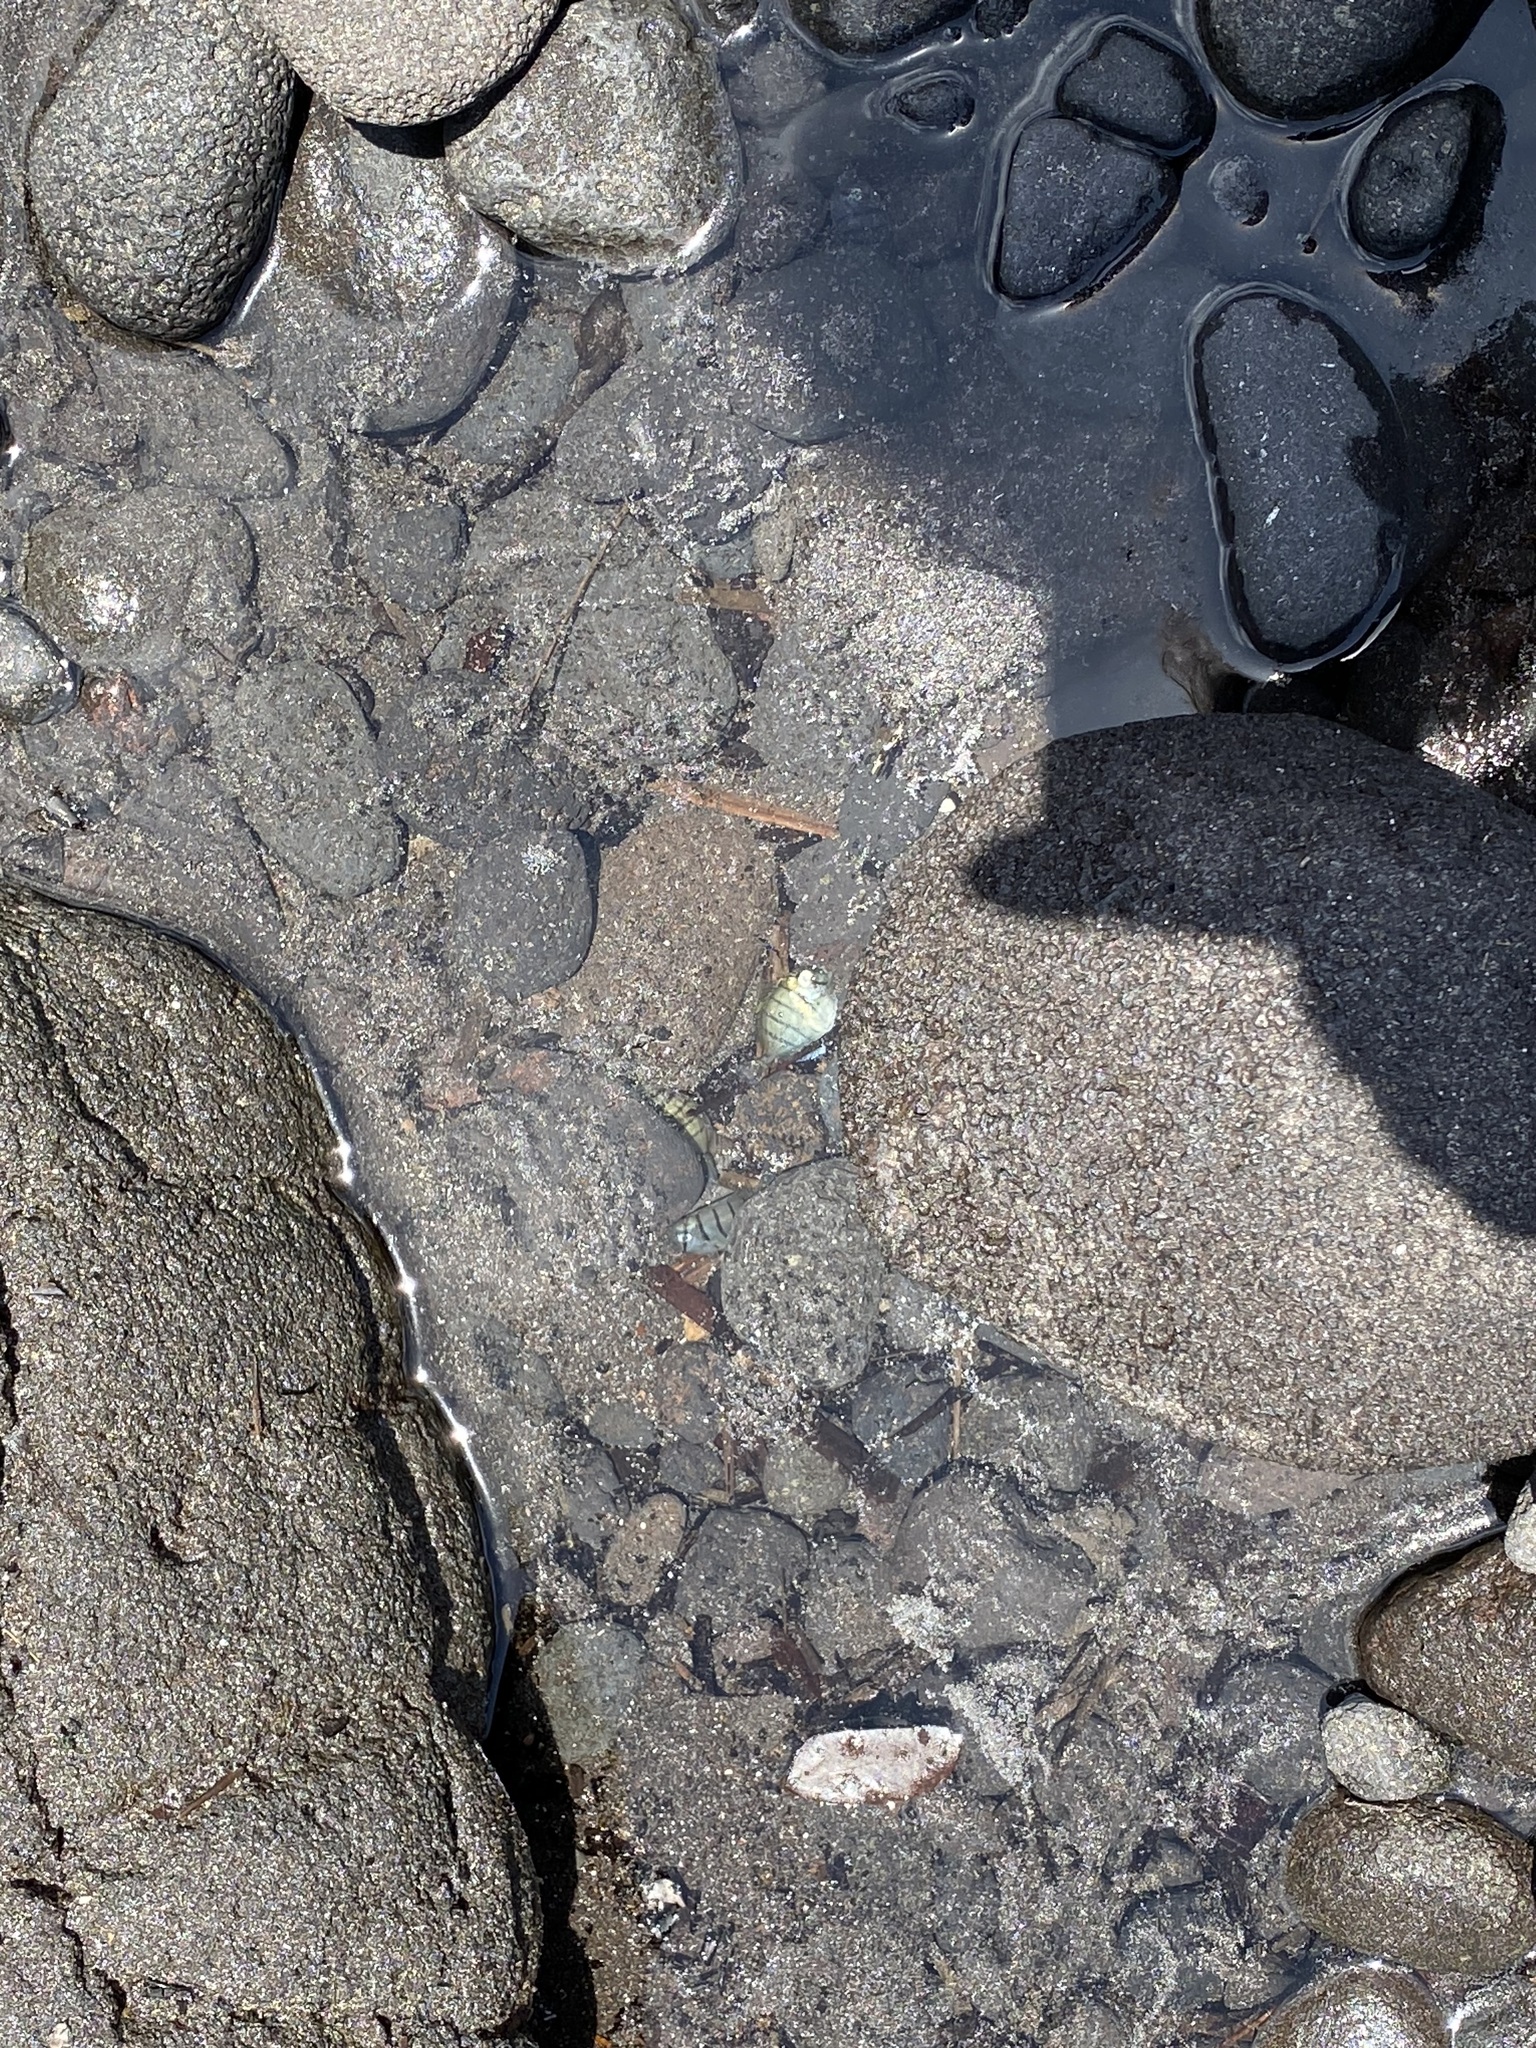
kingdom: Animalia
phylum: Chordata
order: Perciformes
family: Acanthuridae
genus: Acanthurus
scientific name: Acanthurus triostegus
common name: Convict surgeonfish
